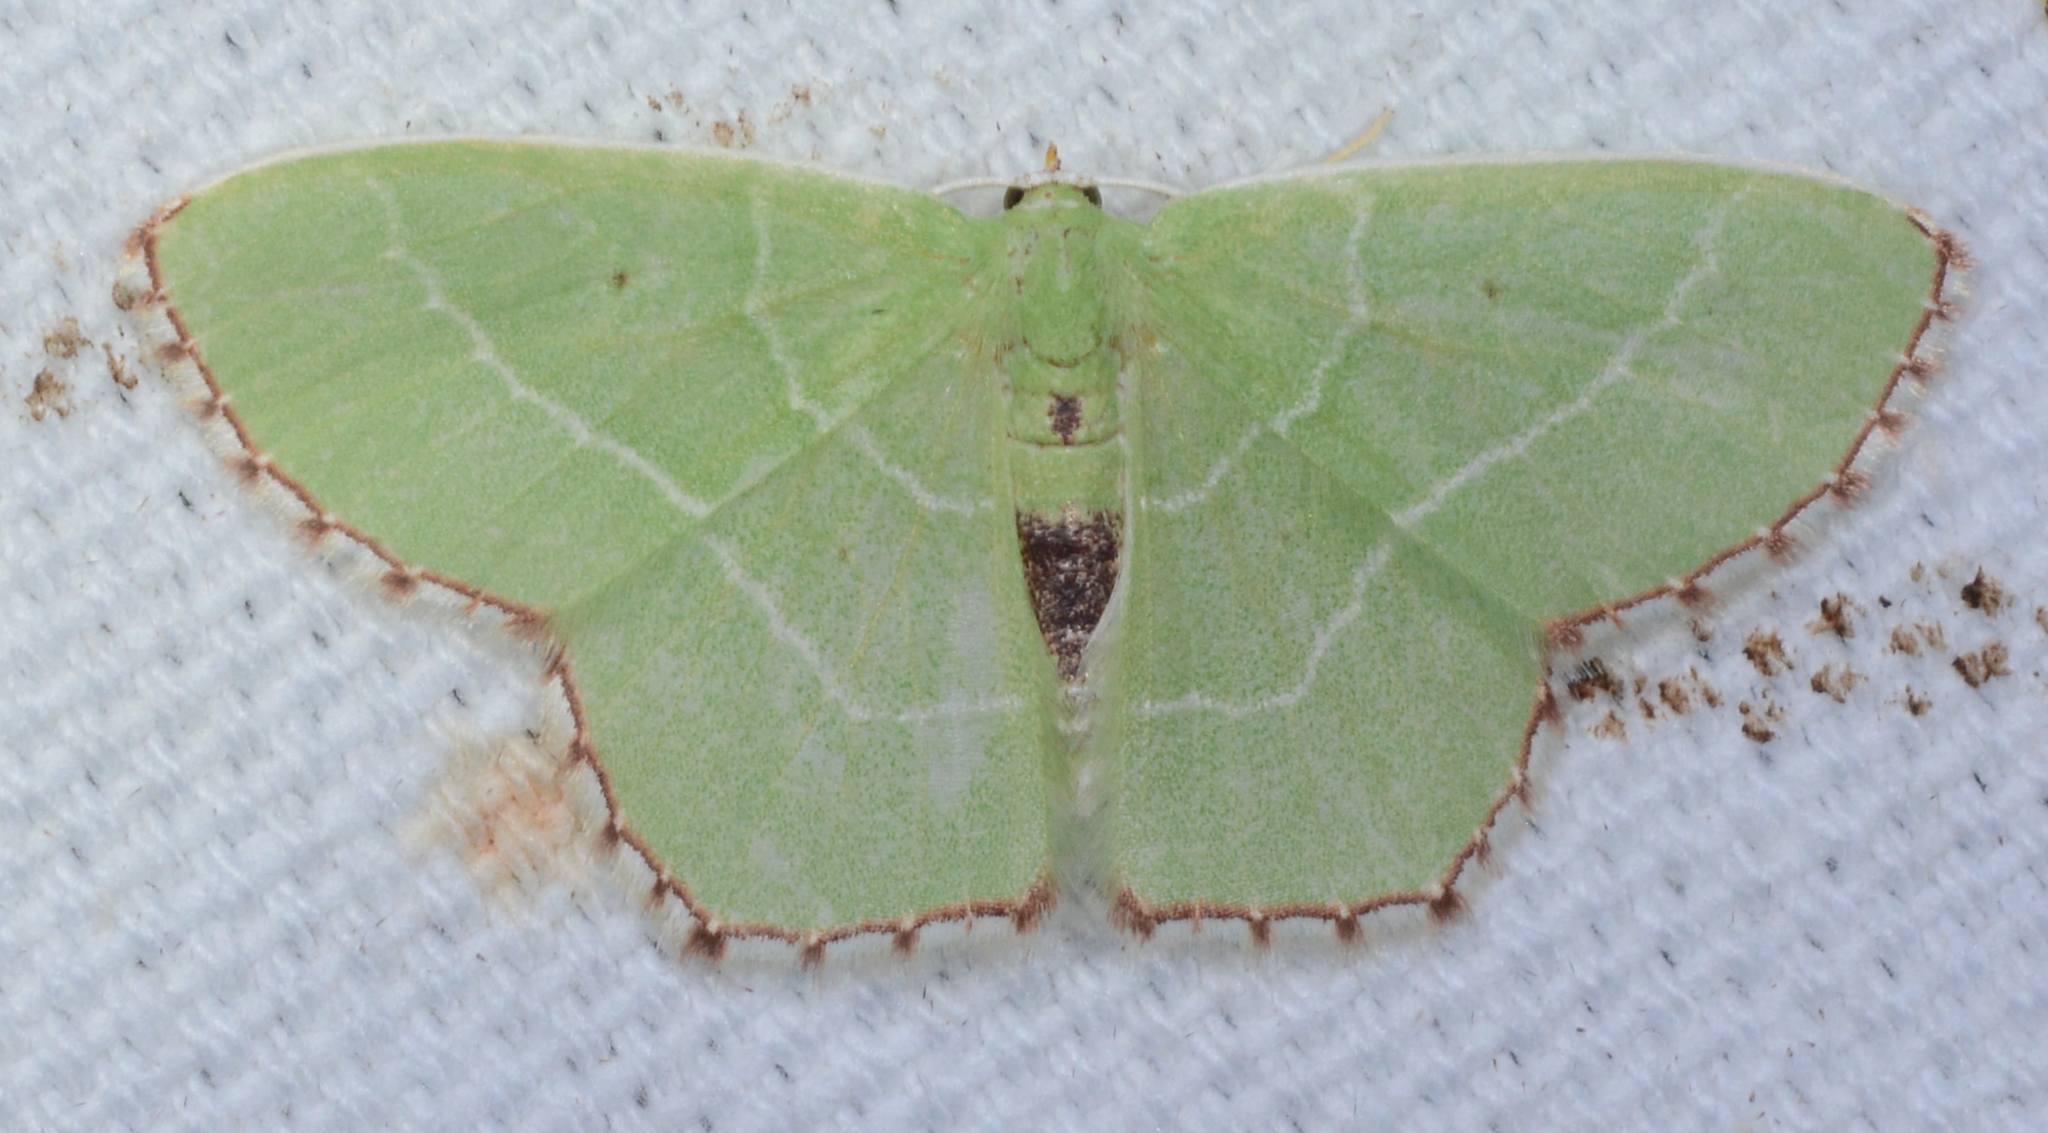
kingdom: Animalia
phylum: Arthropoda
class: Insecta
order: Lepidoptera
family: Geometridae
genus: Nemoria
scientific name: Nemoria saturiba
